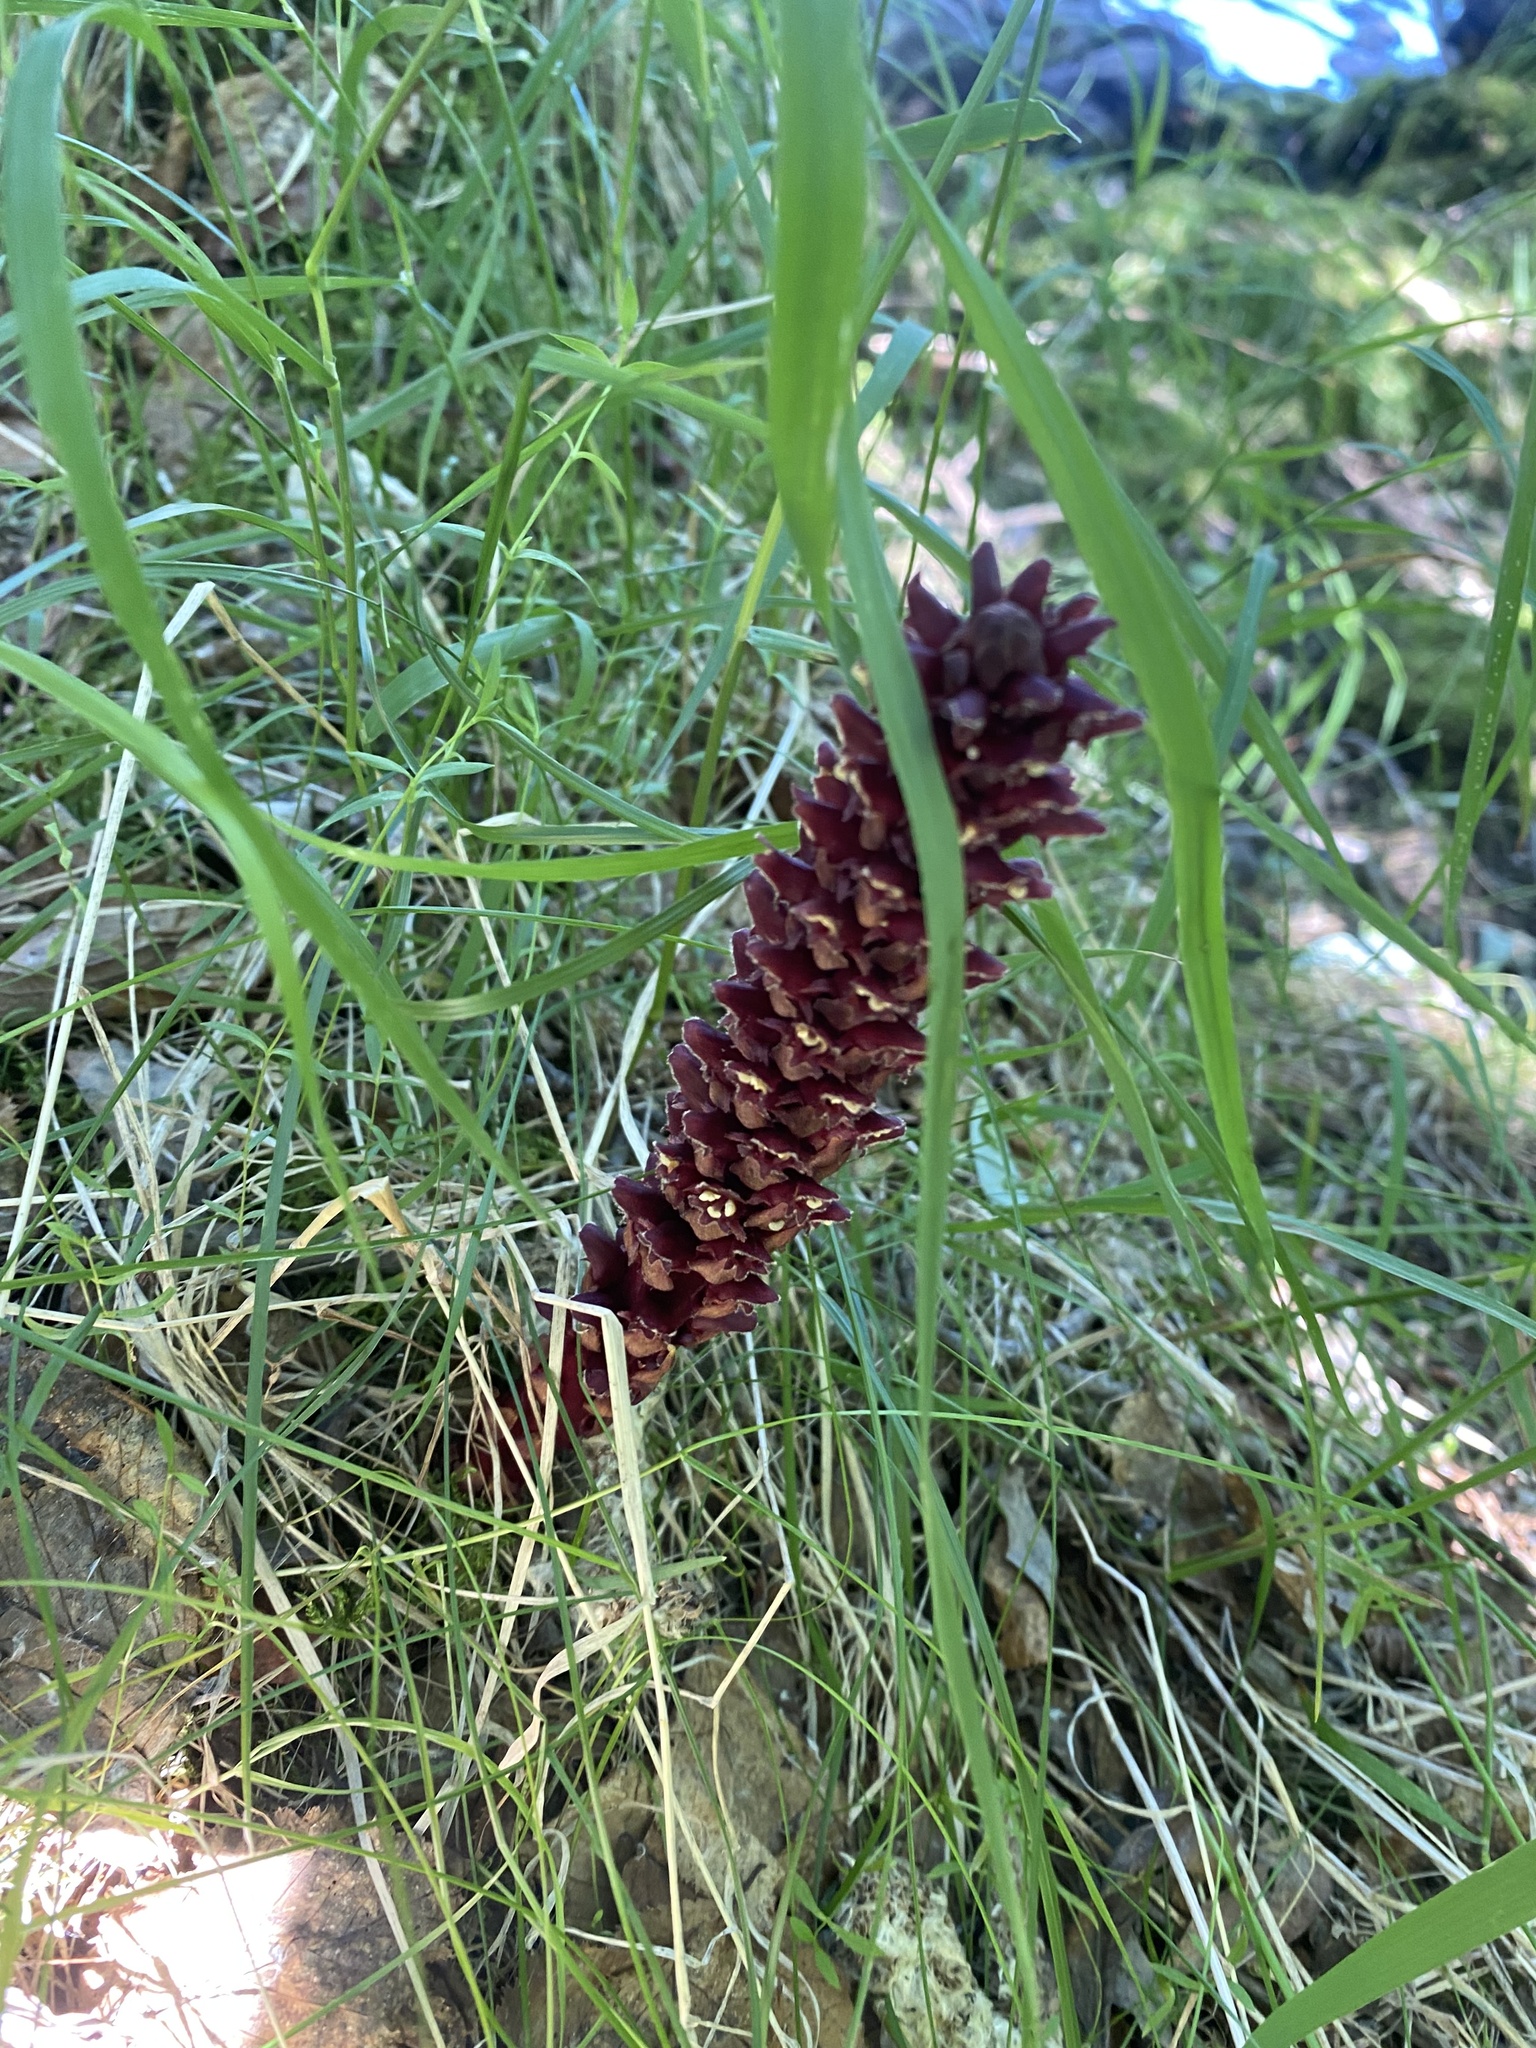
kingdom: Plantae
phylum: Tracheophyta
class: Magnoliopsida
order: Lamiales
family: Orobanchaceae
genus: Boschniakia
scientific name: Boschniakia rossica
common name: Poque
